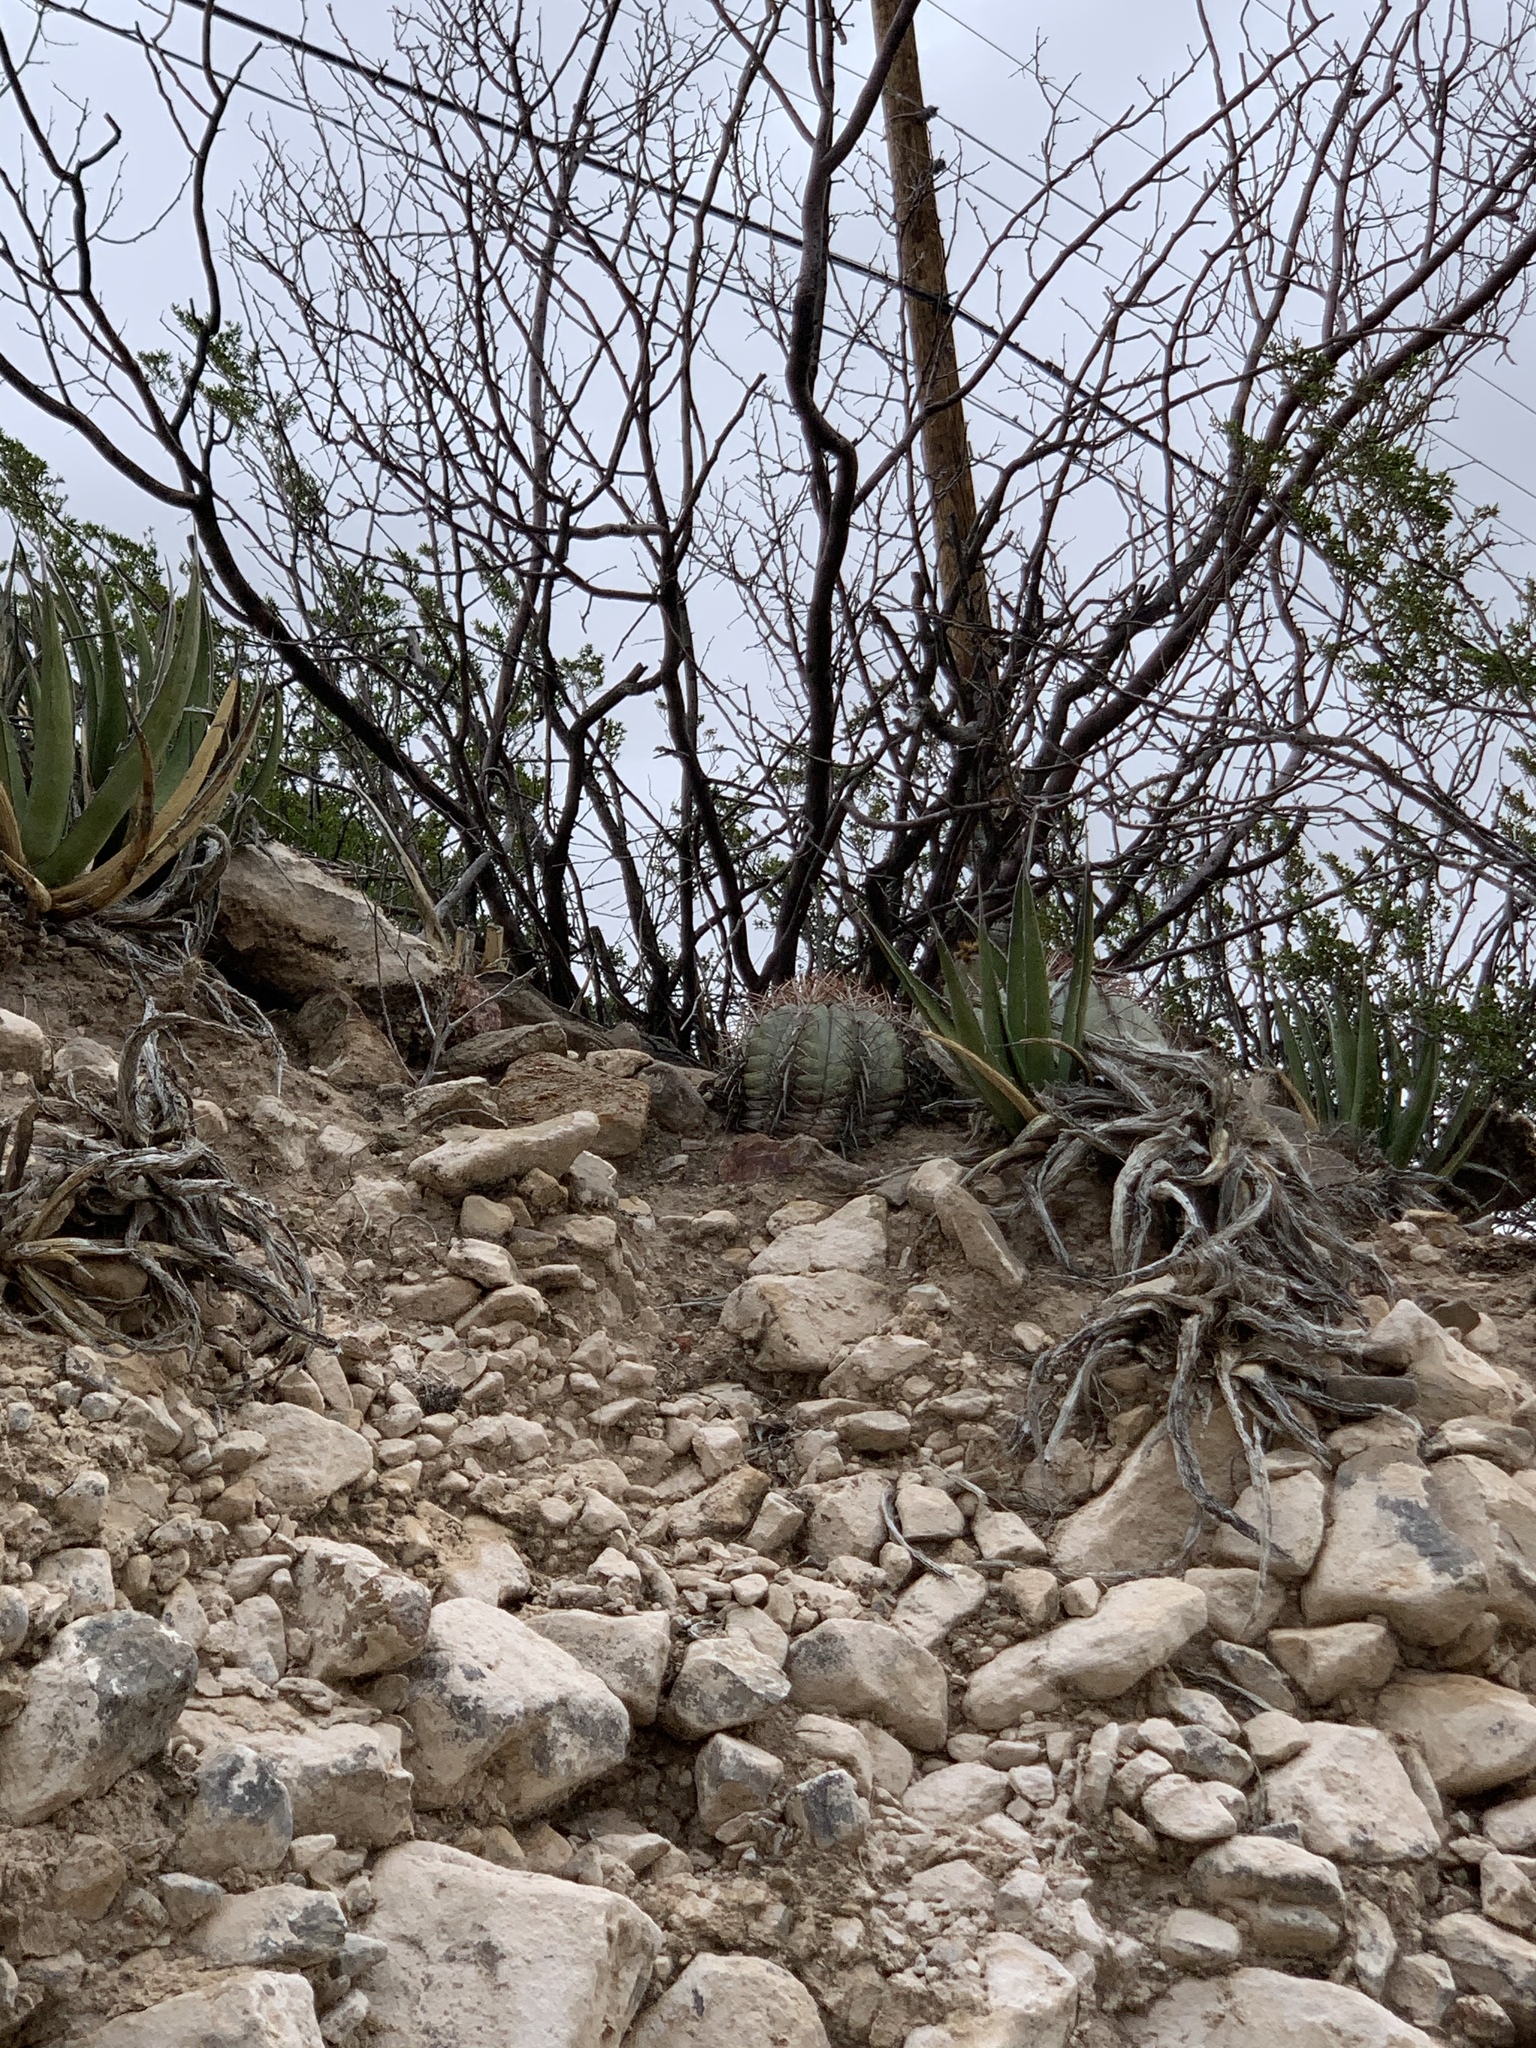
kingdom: Plantae
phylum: Tracheophyta
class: Magnoliopsida
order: Caryophyllales
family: Cactaceae
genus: Echinocactus
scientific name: Echinocactus horizonthalonius
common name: Devilshead
